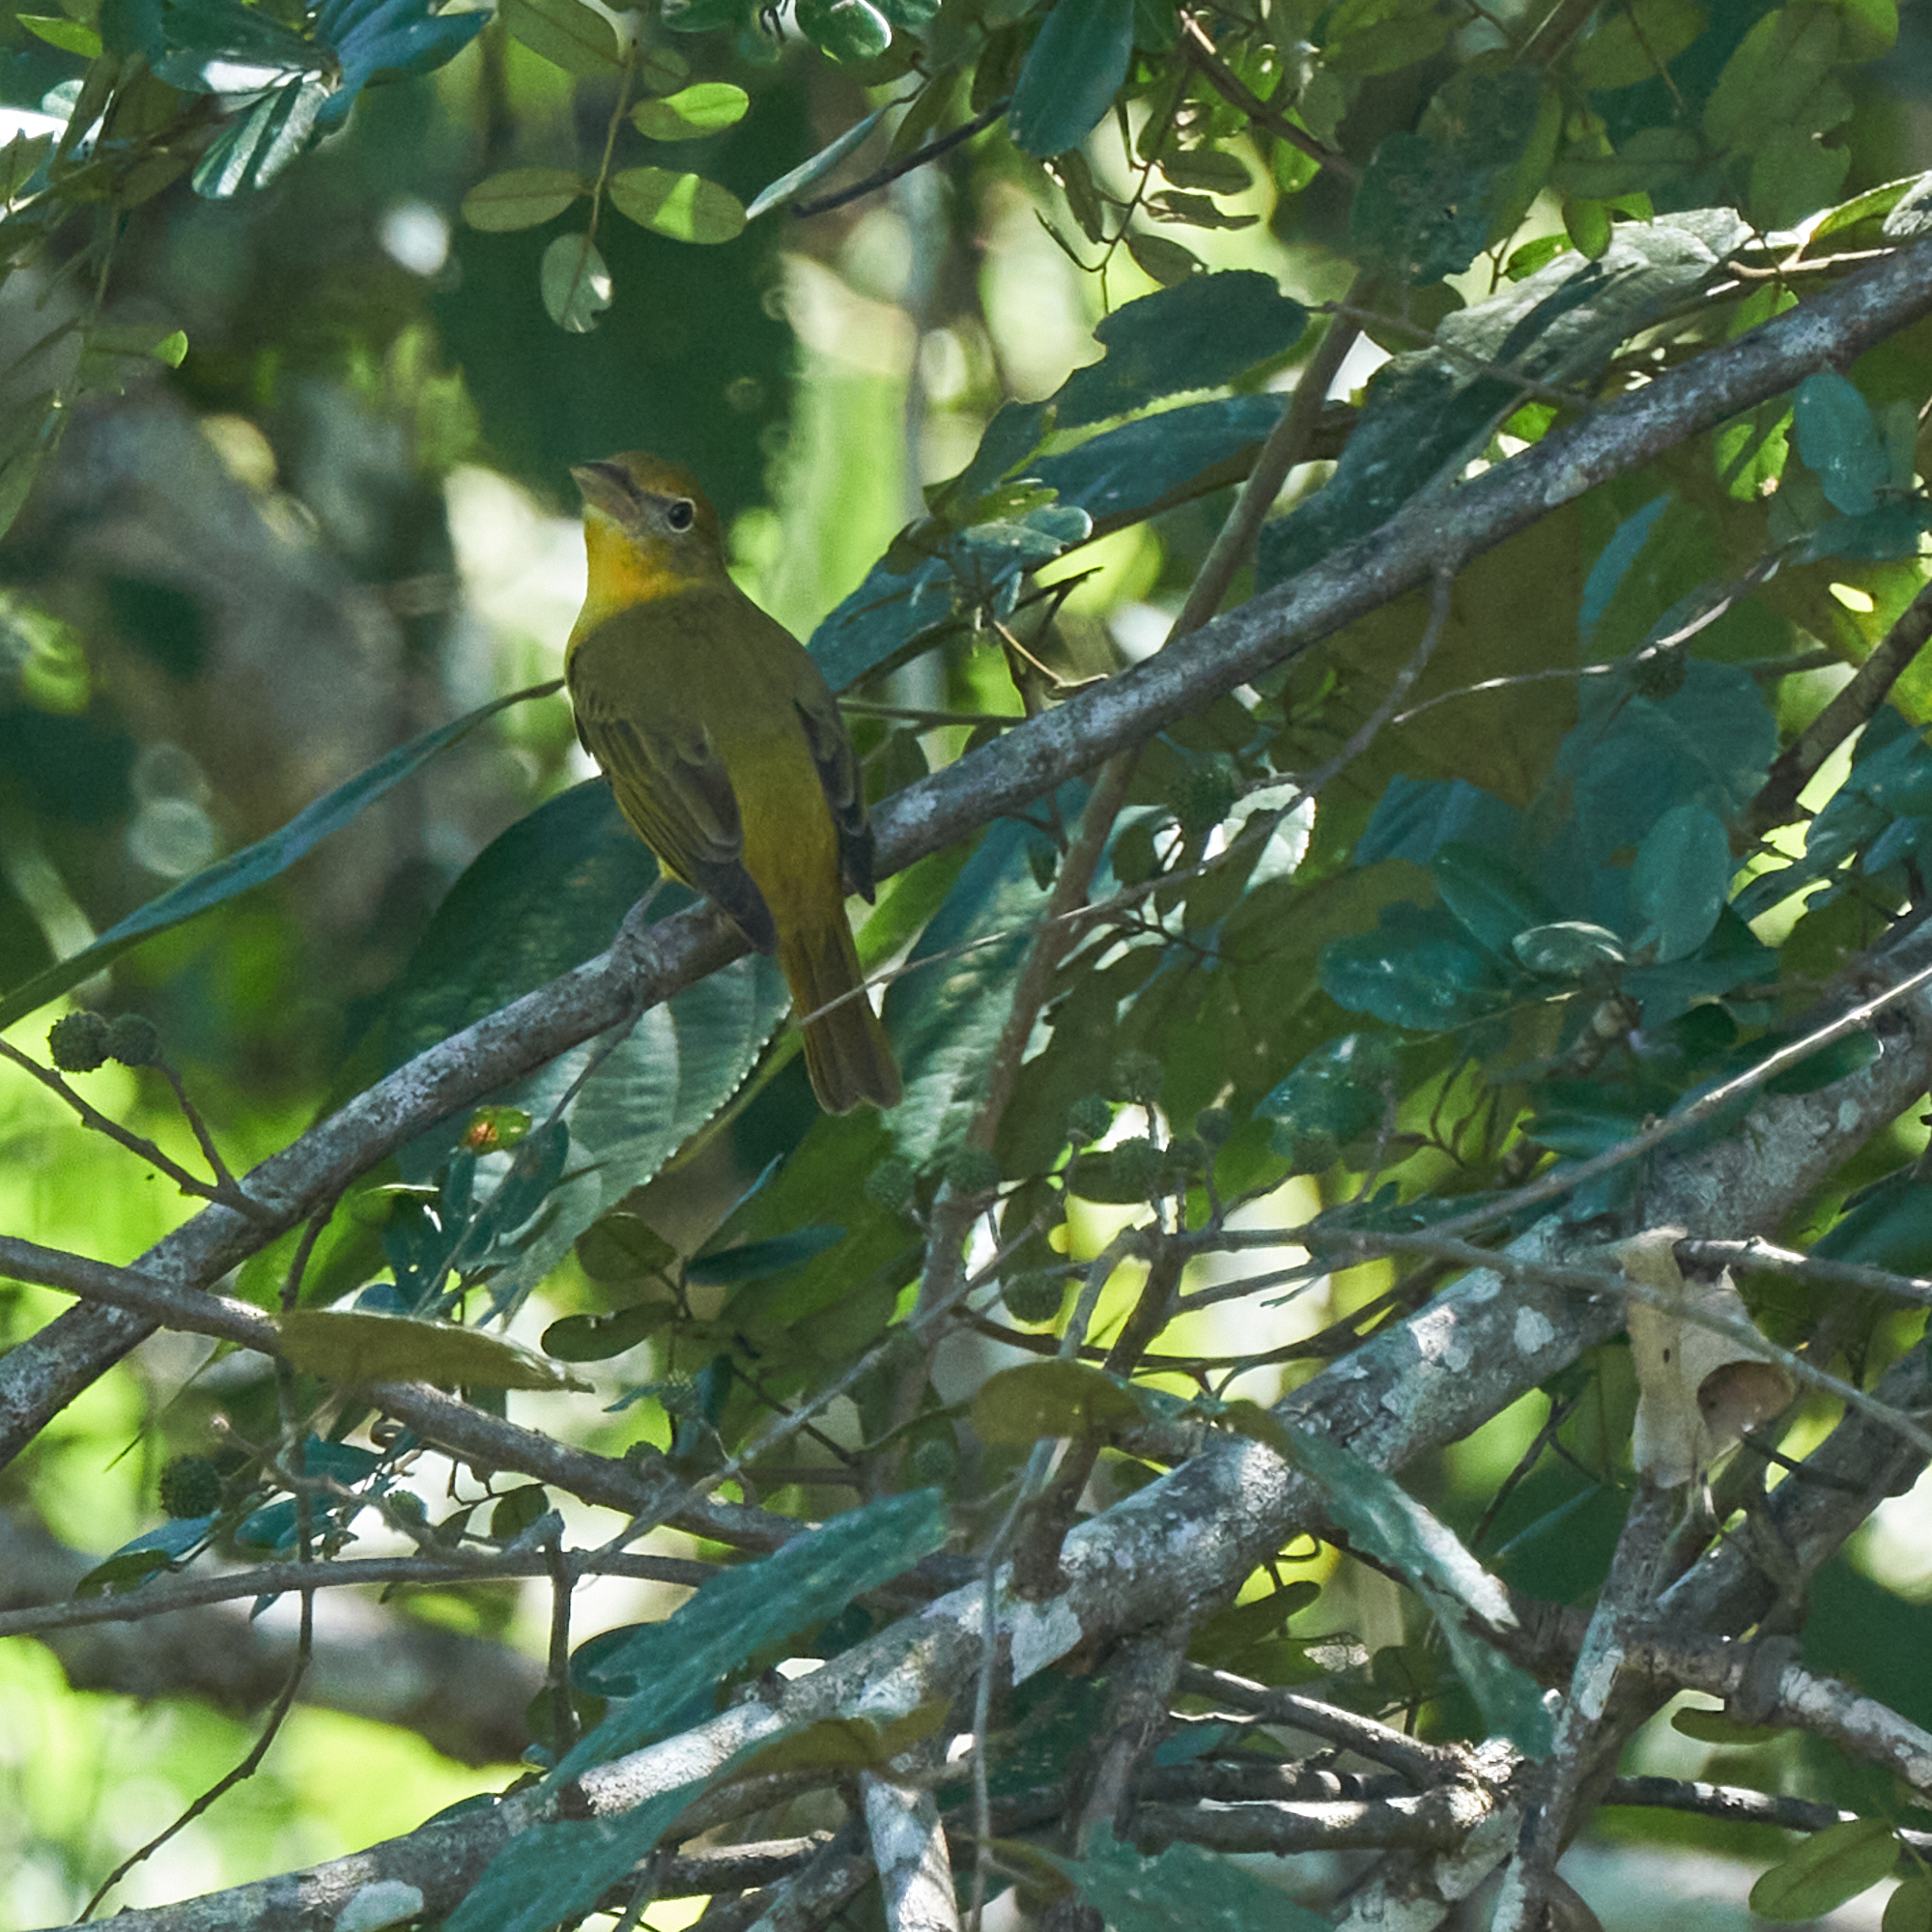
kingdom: Animalia
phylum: Chordata
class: Aves
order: Passeriformes
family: Cardinalidae
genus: Piranga
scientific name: Piranga rubra
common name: Summer tanager
